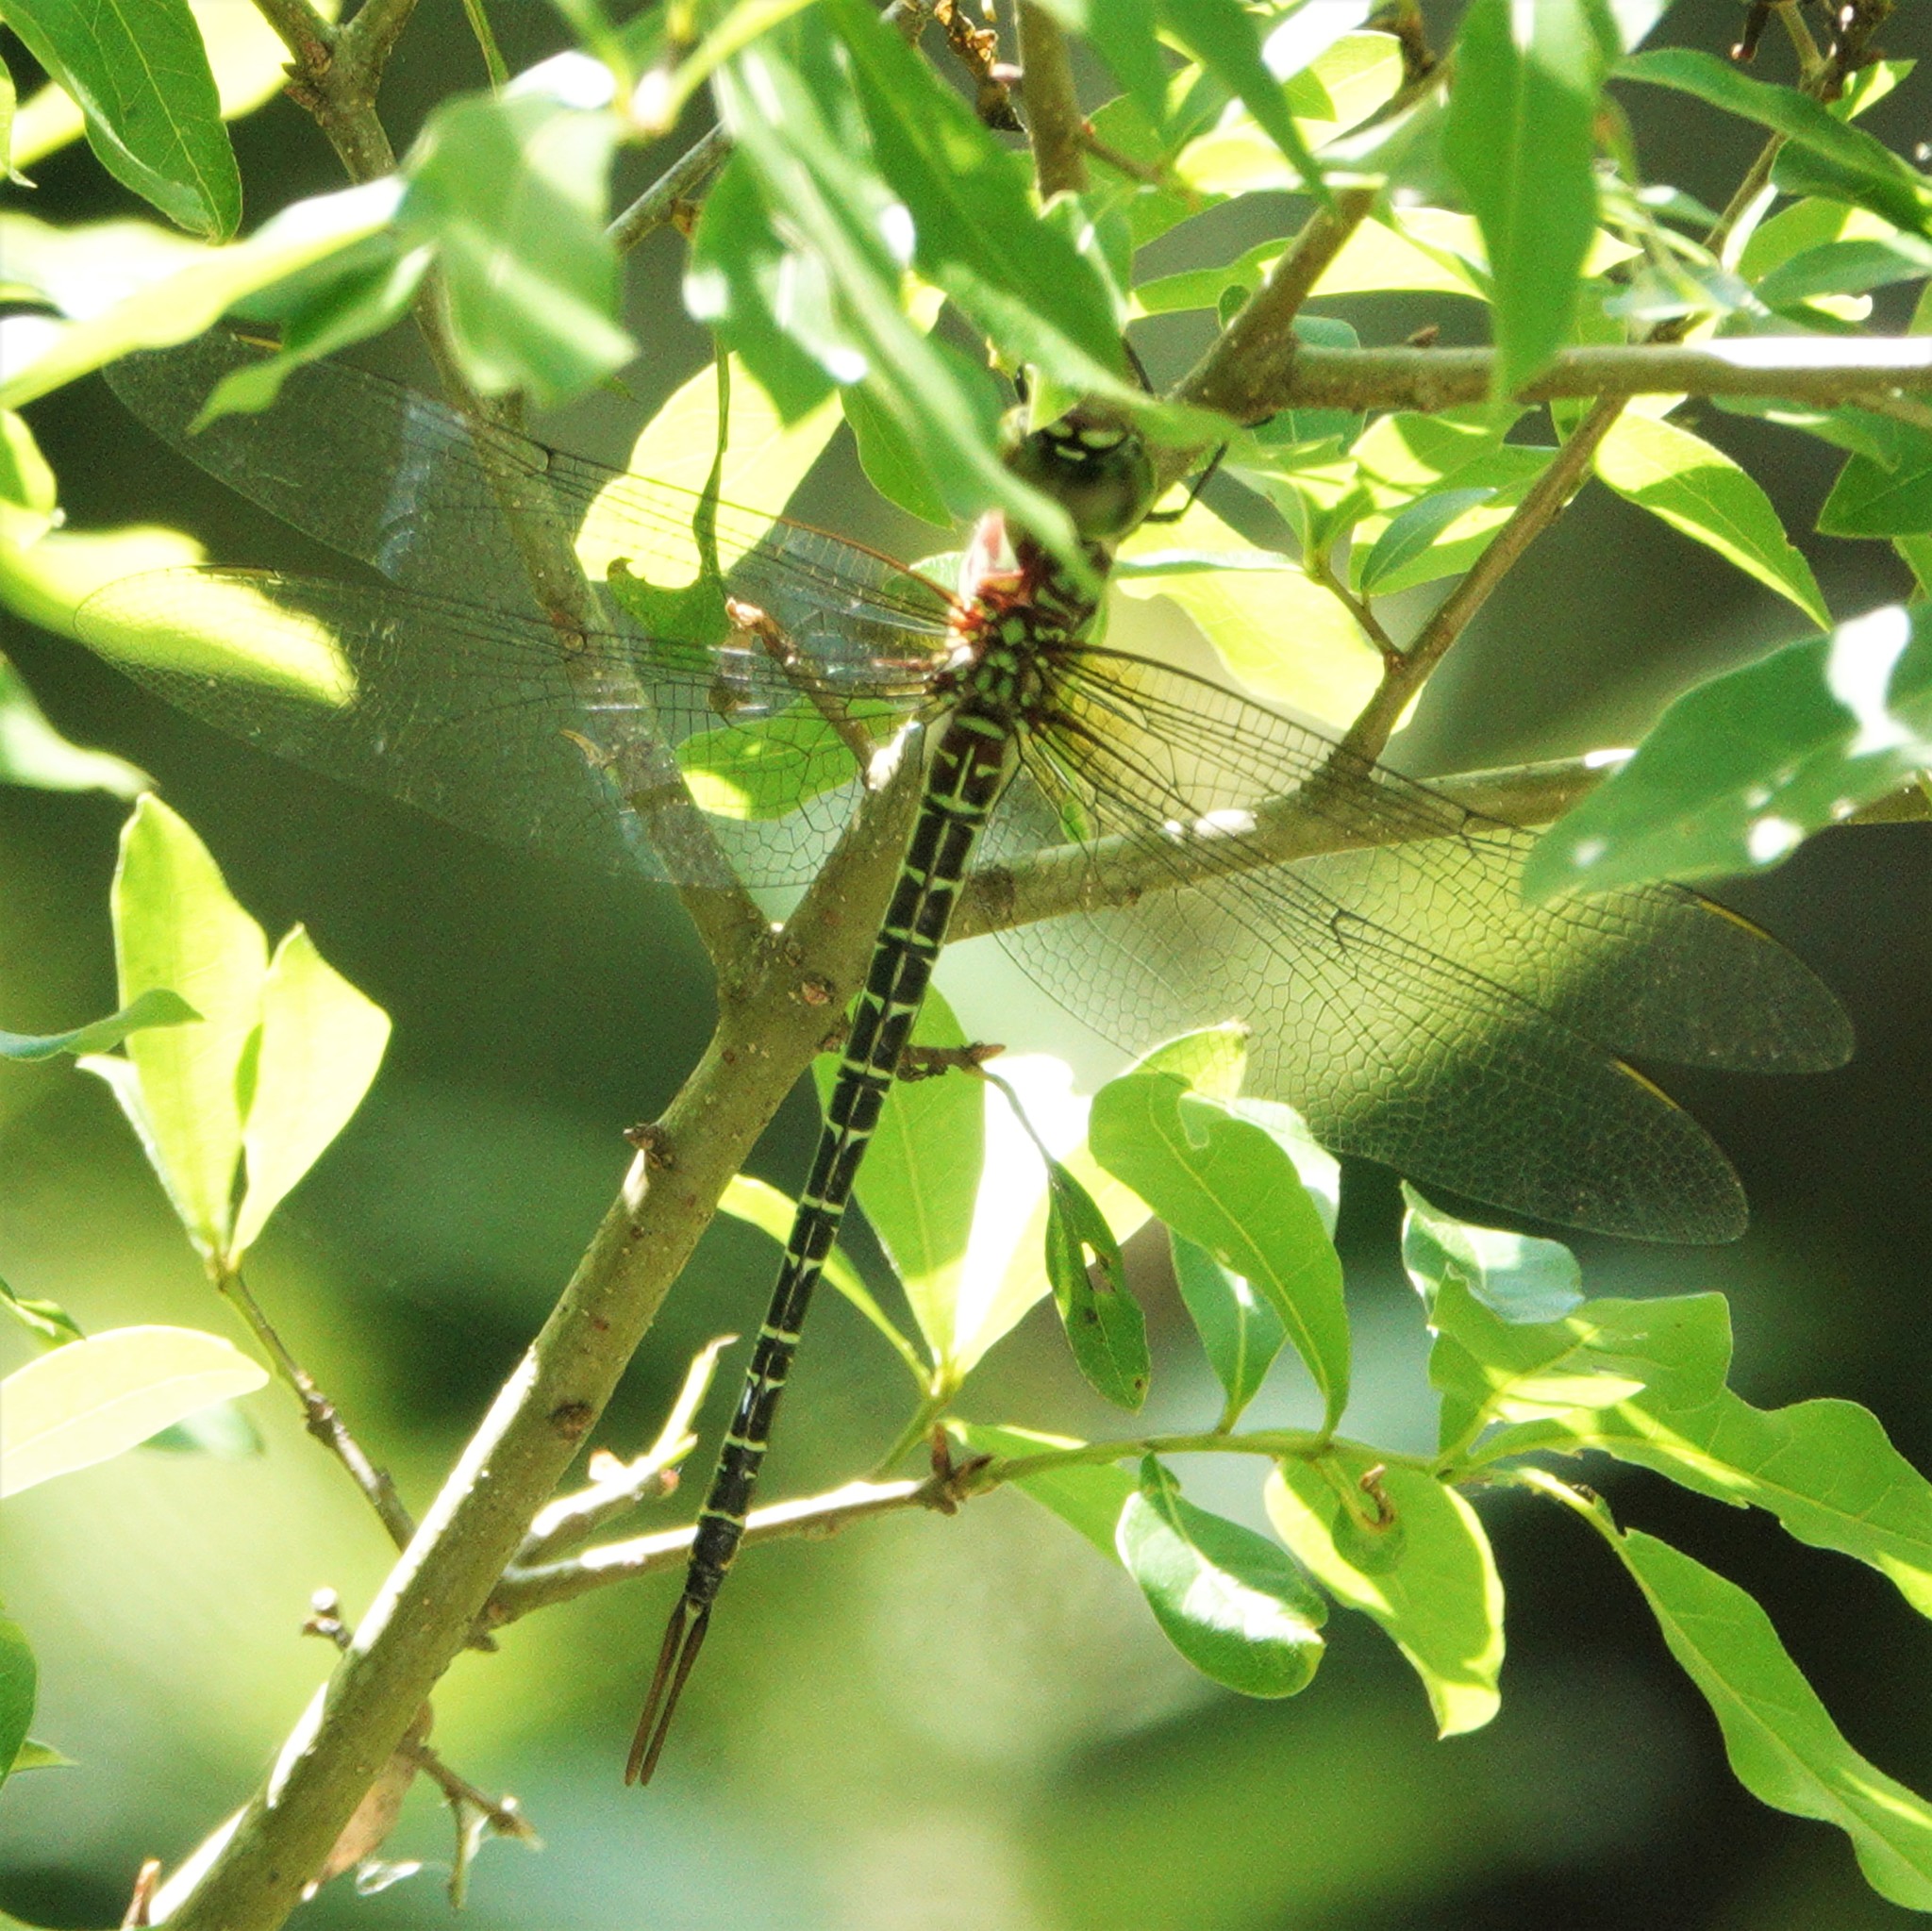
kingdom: Animalia
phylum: Arthropoda
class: Insecta
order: Odonata
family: Aeshnidae
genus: Coryphaeschna
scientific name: Coryphaeschna ingens
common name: Regal darner
